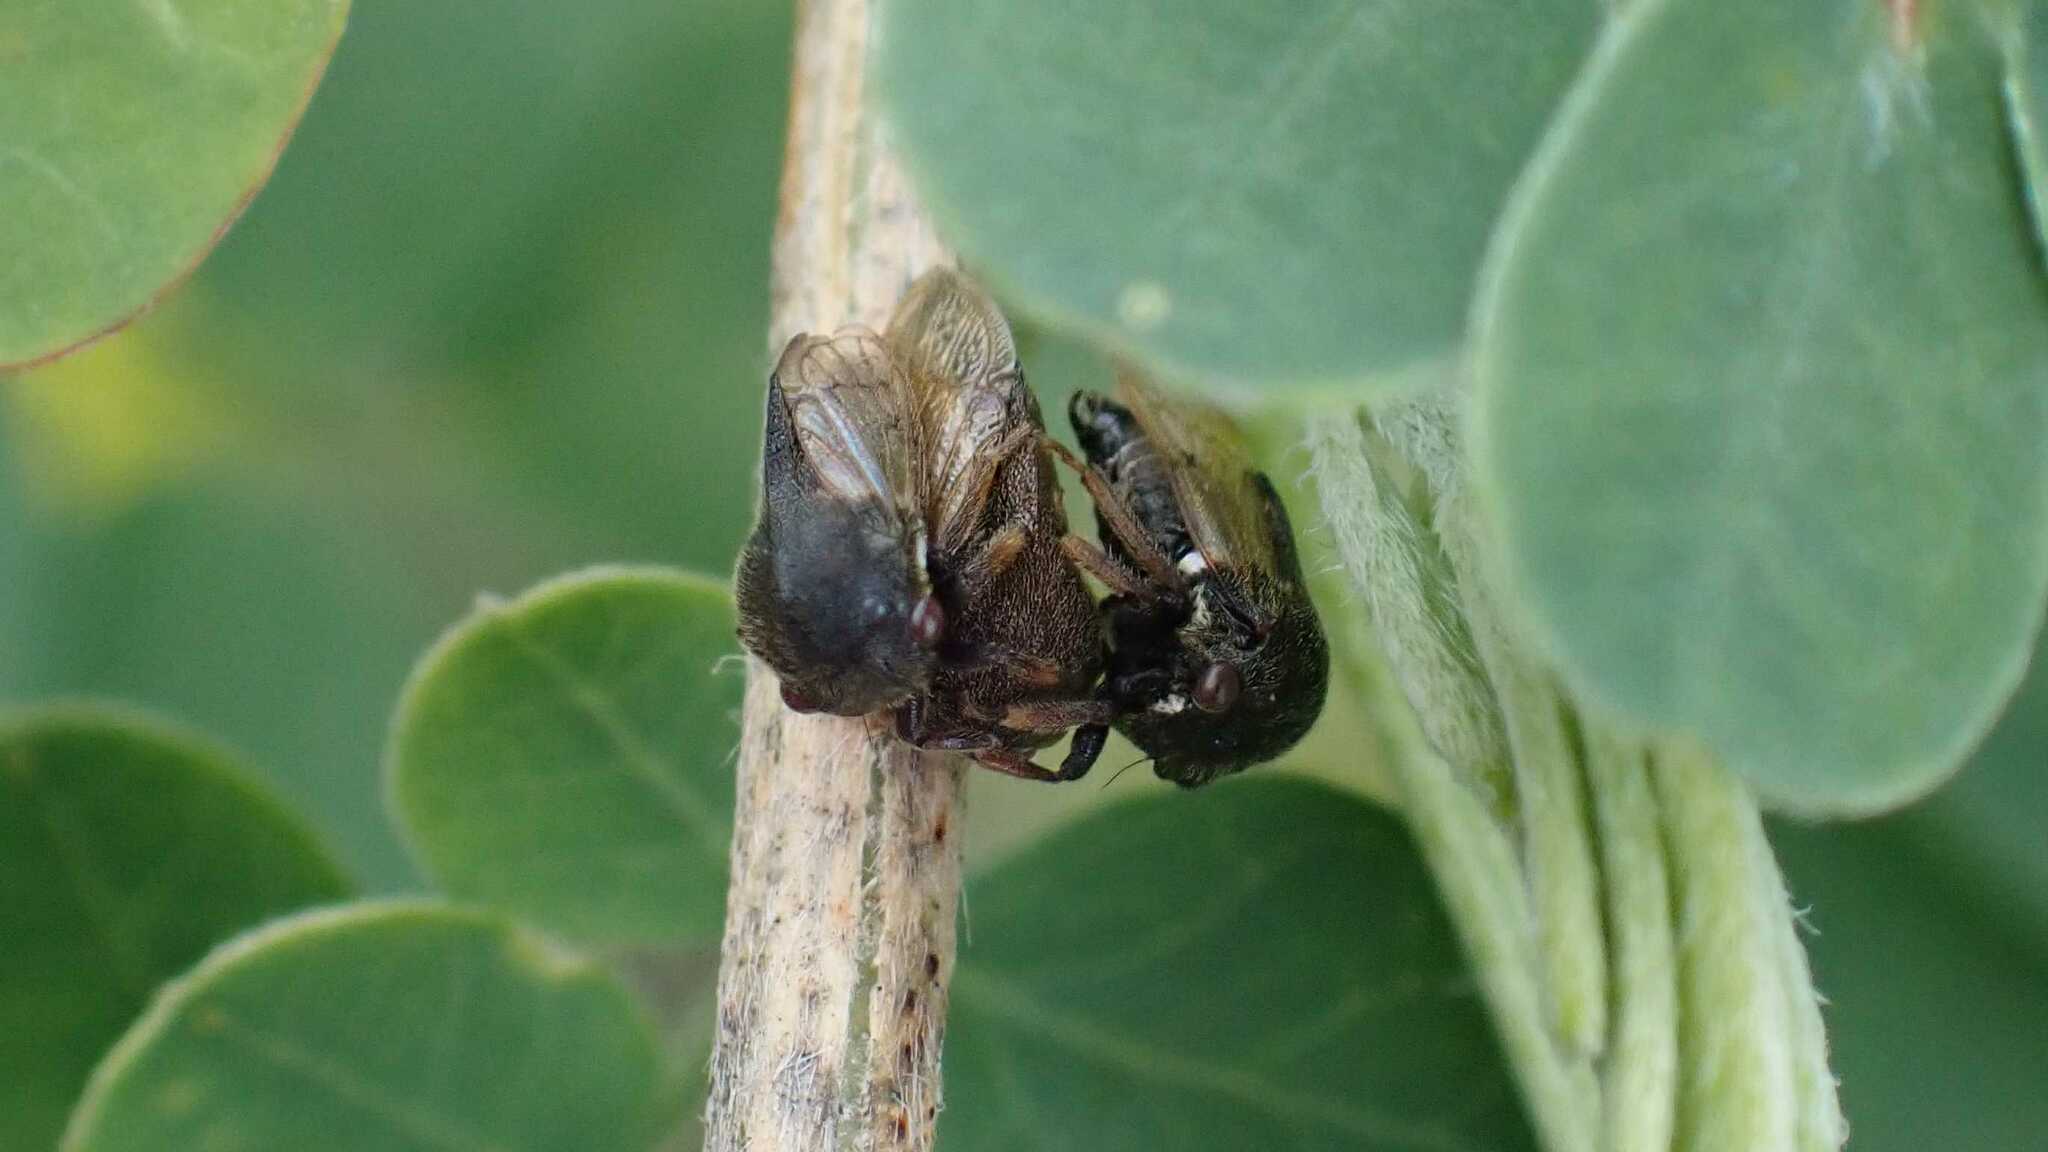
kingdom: Animalia
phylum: Arthropoda
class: Insecta
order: Hemiptera
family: Membracidae
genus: Gargara
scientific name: Gargara genistae
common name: Treehopper
